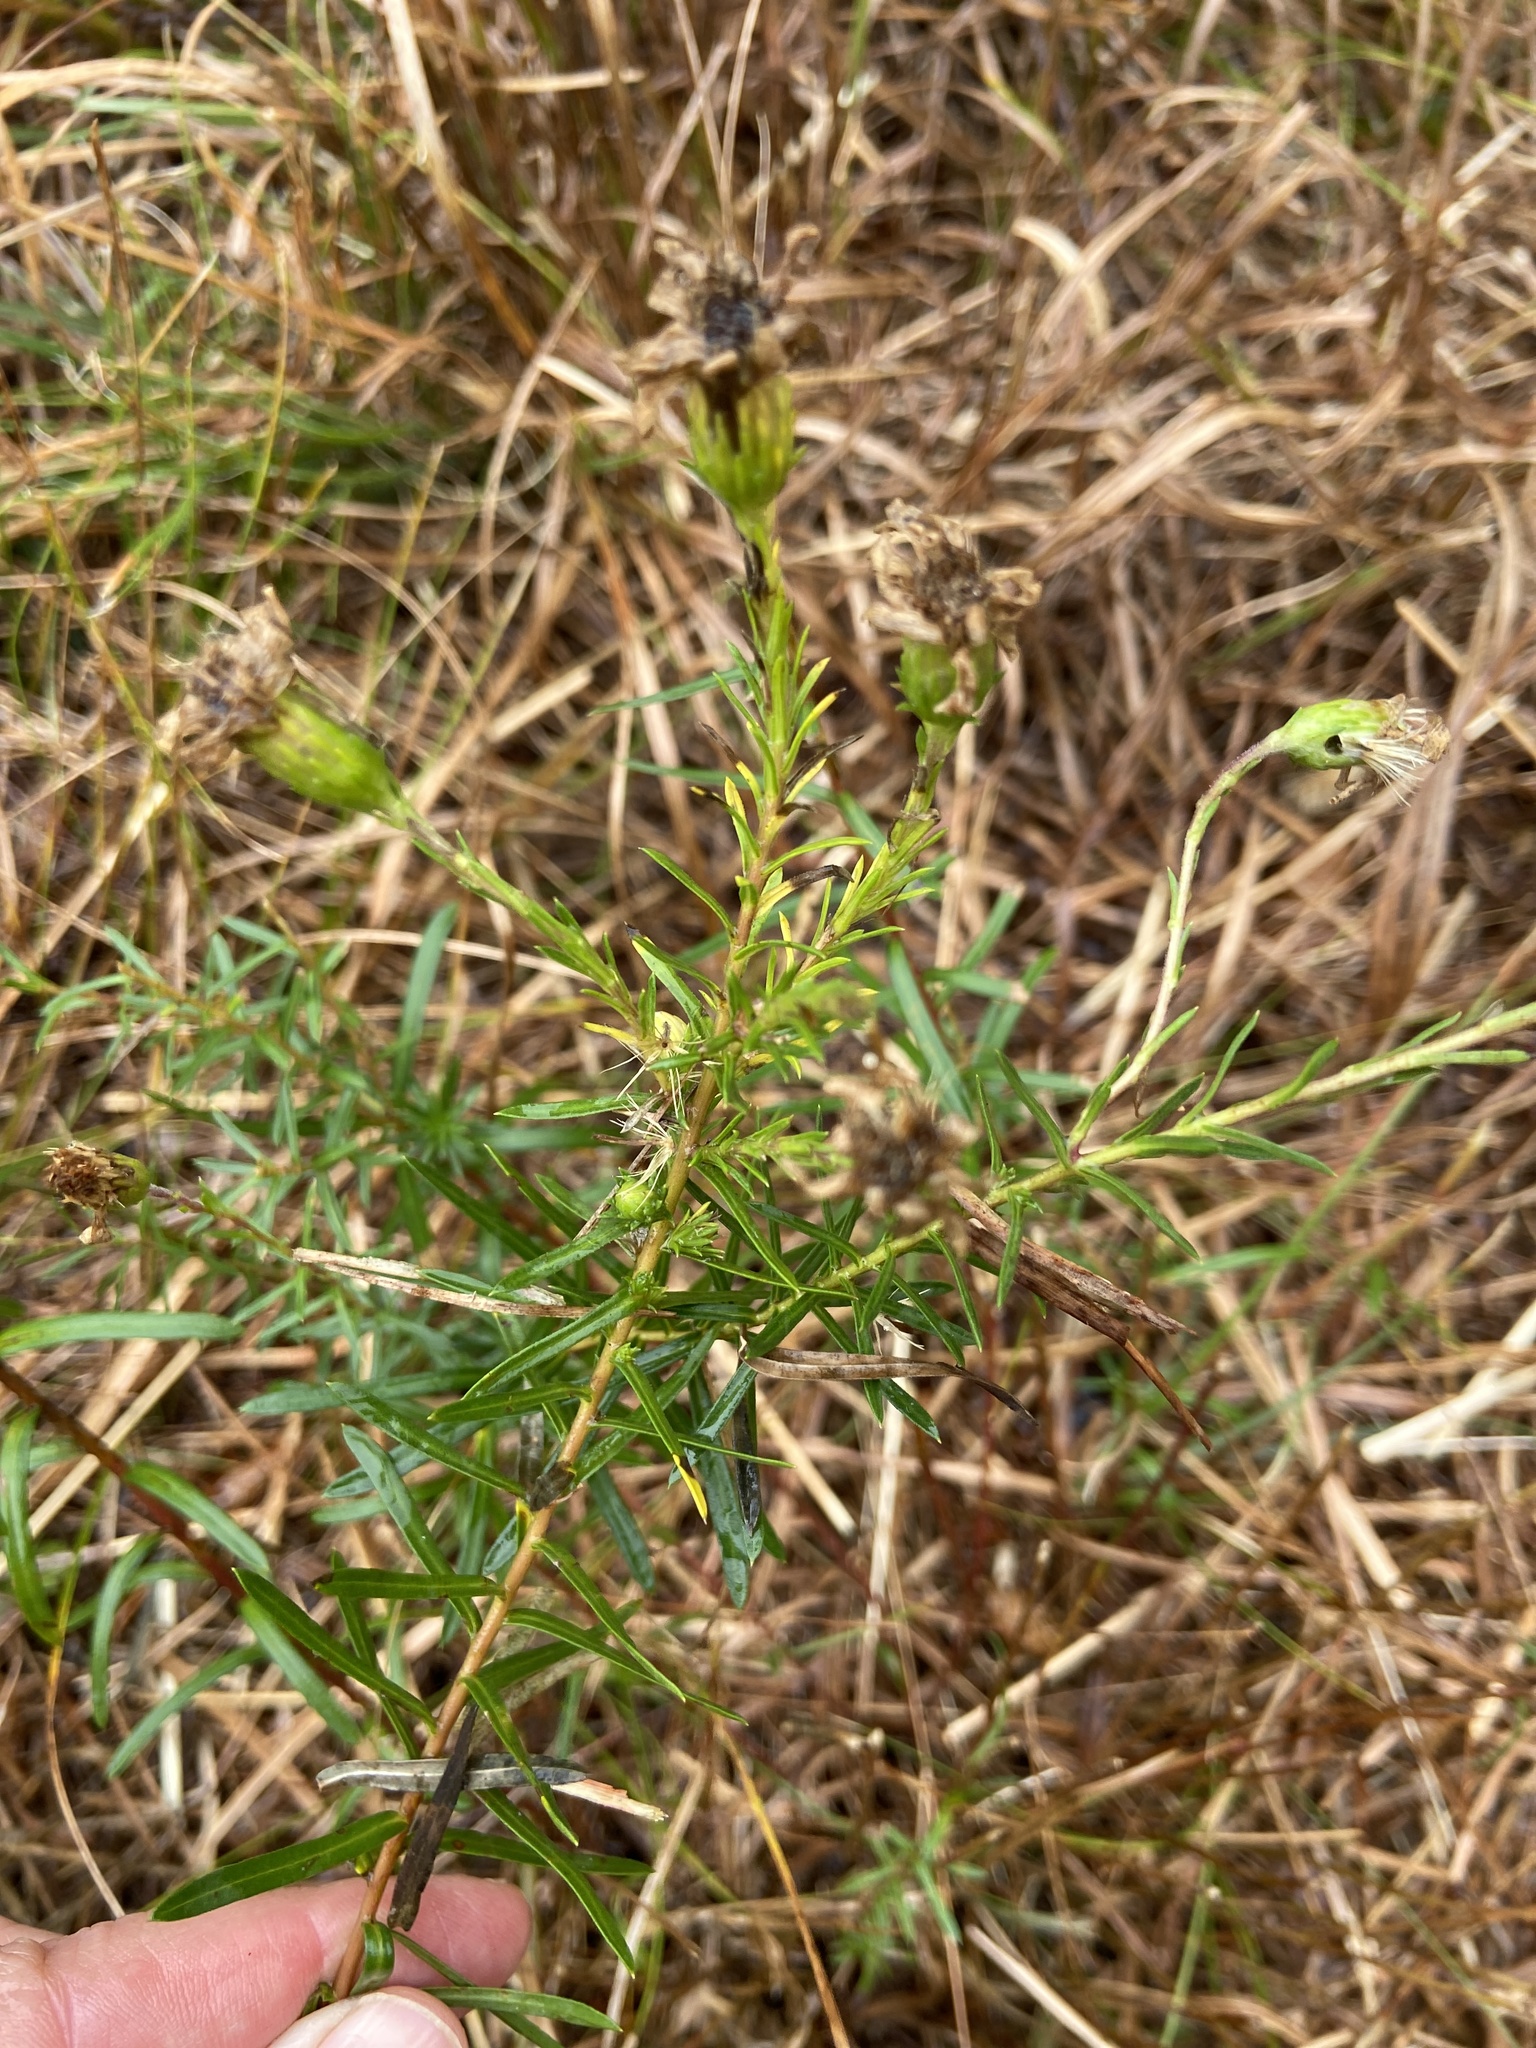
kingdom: Plantae
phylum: Tracheophyta
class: Magnoliopsida
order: Asterales
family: Asteraceae
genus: Ionactis
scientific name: Ionactis linariifolia
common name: Flax-leaf aster
